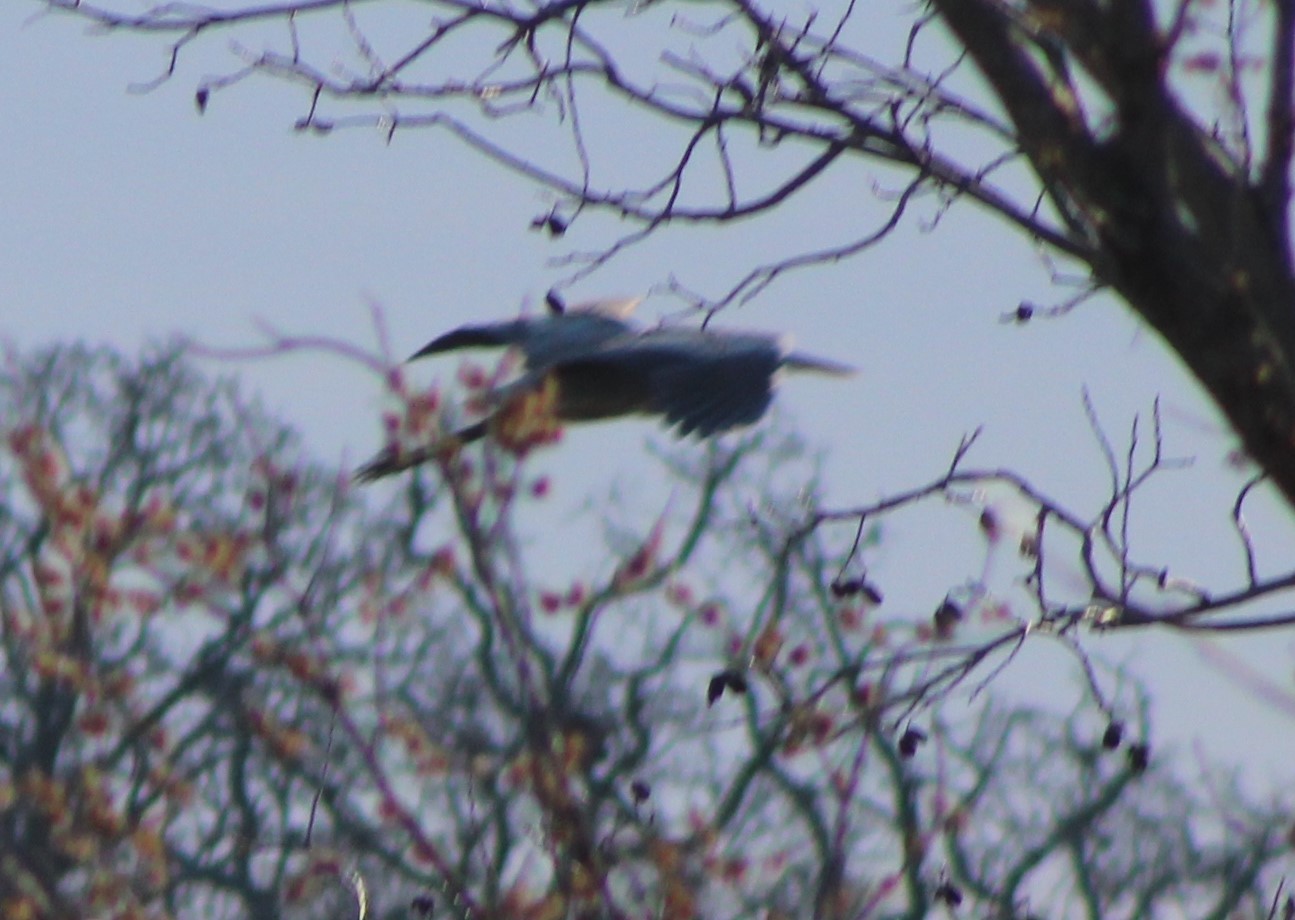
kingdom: Animalia
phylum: Chordata
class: Aves
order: Pelecaniformes
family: Ardeidae
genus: Ardea
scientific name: Ardea herodias
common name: Great blue heron
